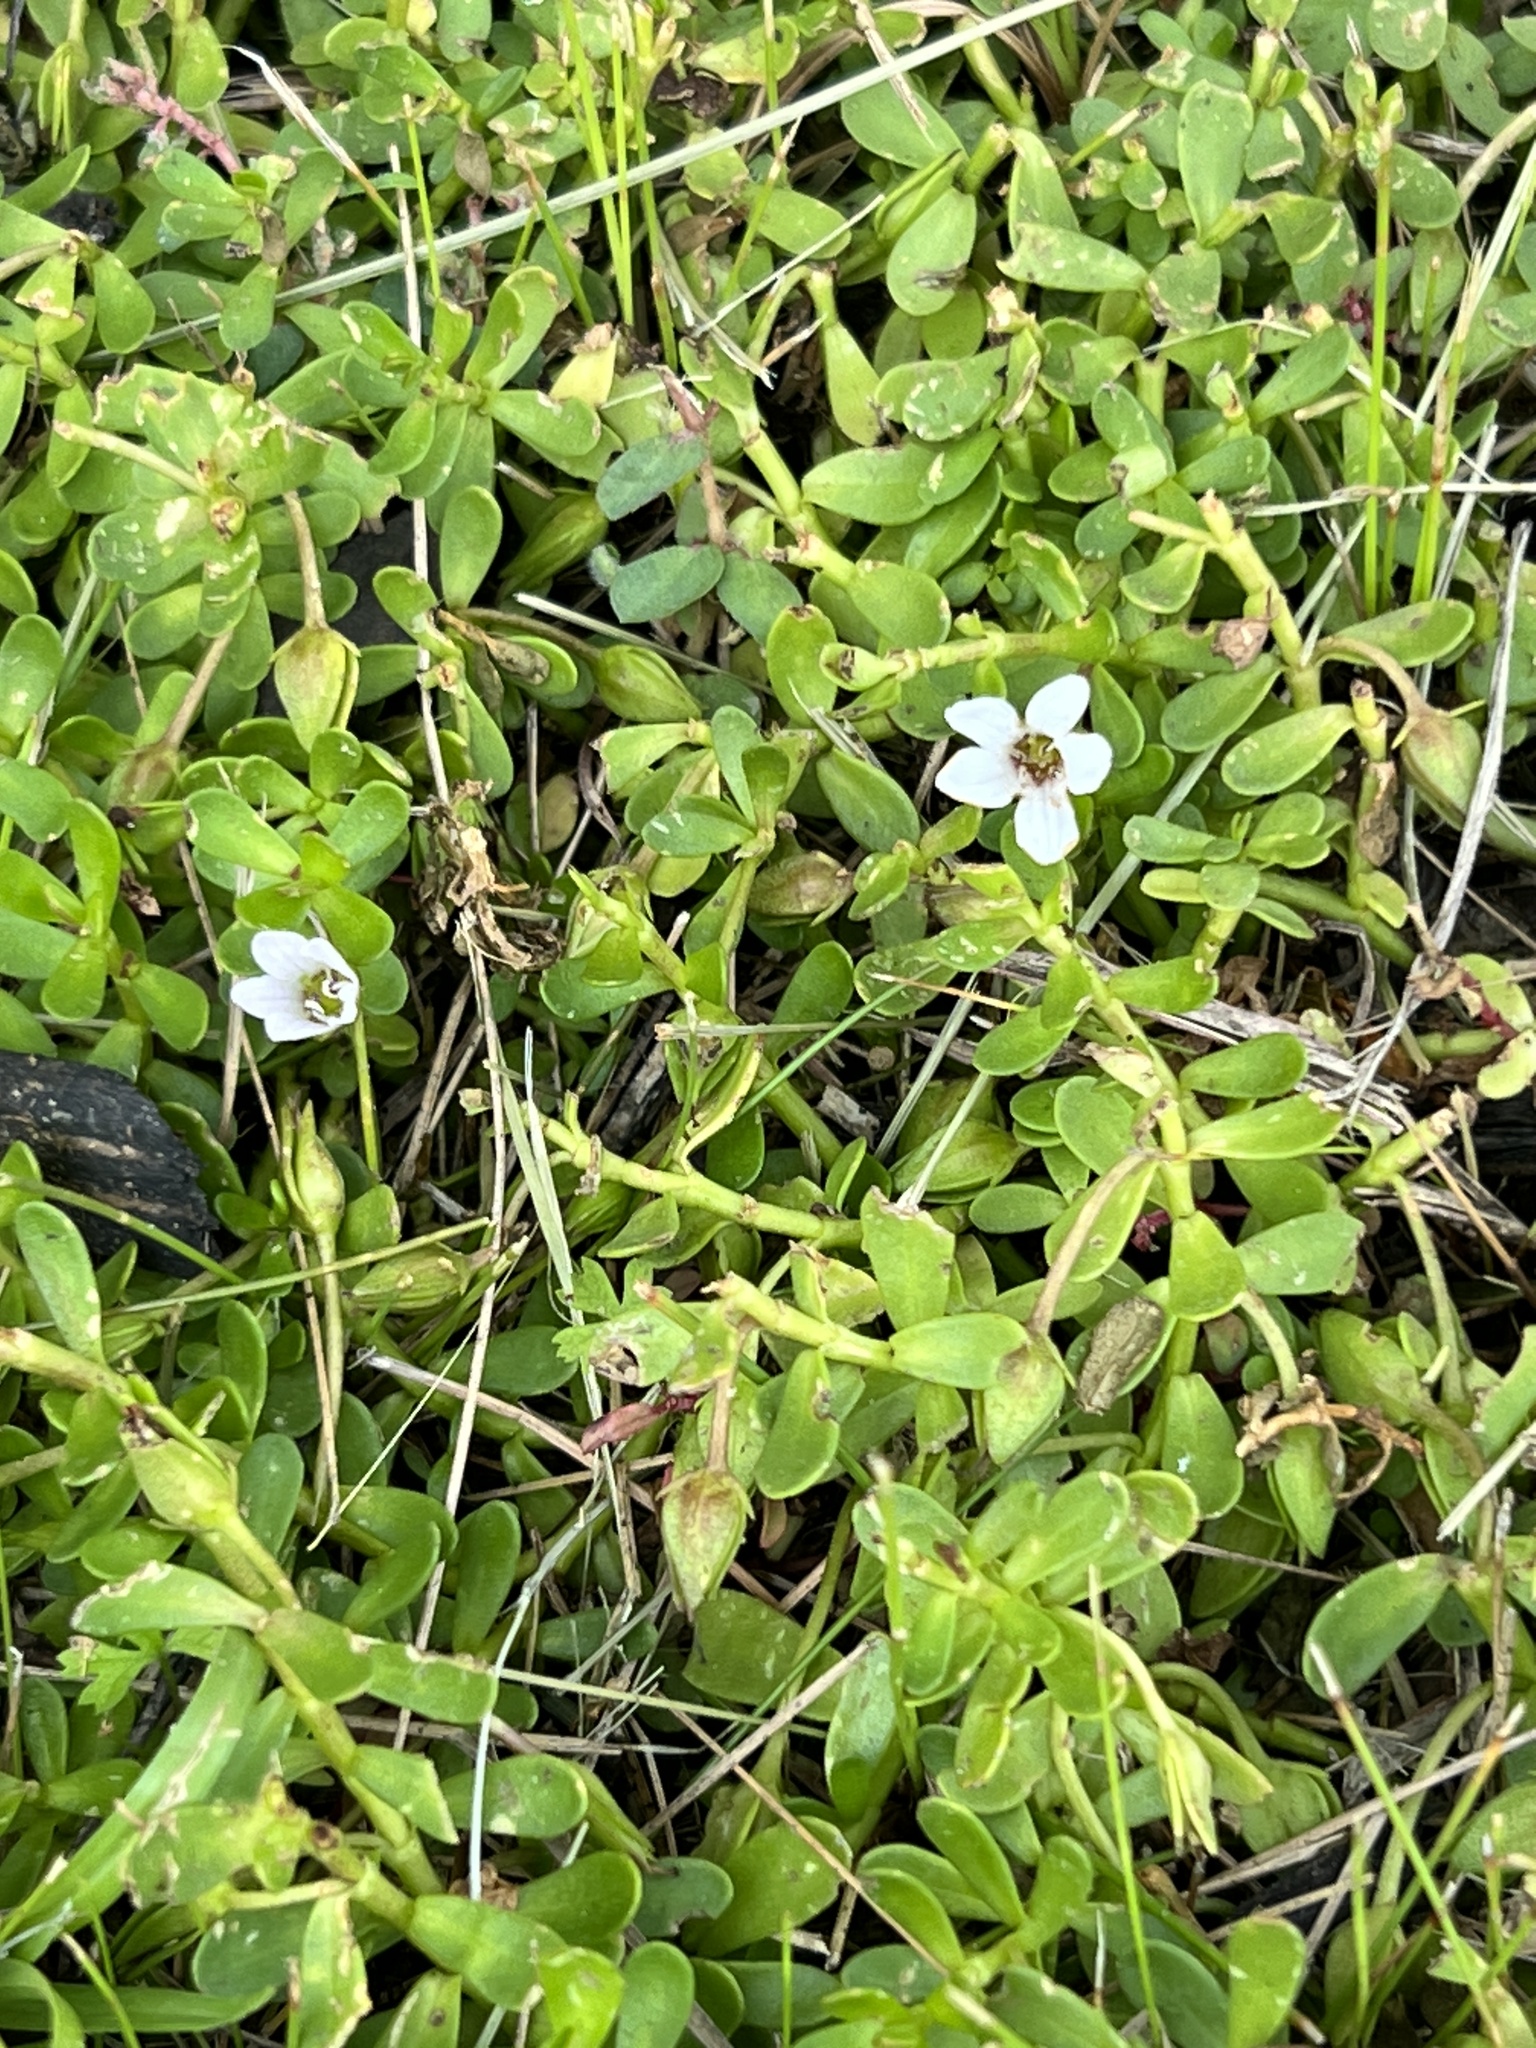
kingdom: Plantae
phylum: Tracheophyta
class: Magnoliopsida
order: Lamiales
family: Plantaginaceae
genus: Bacopa
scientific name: Bacopa monnieri
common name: Indian-pennywort
